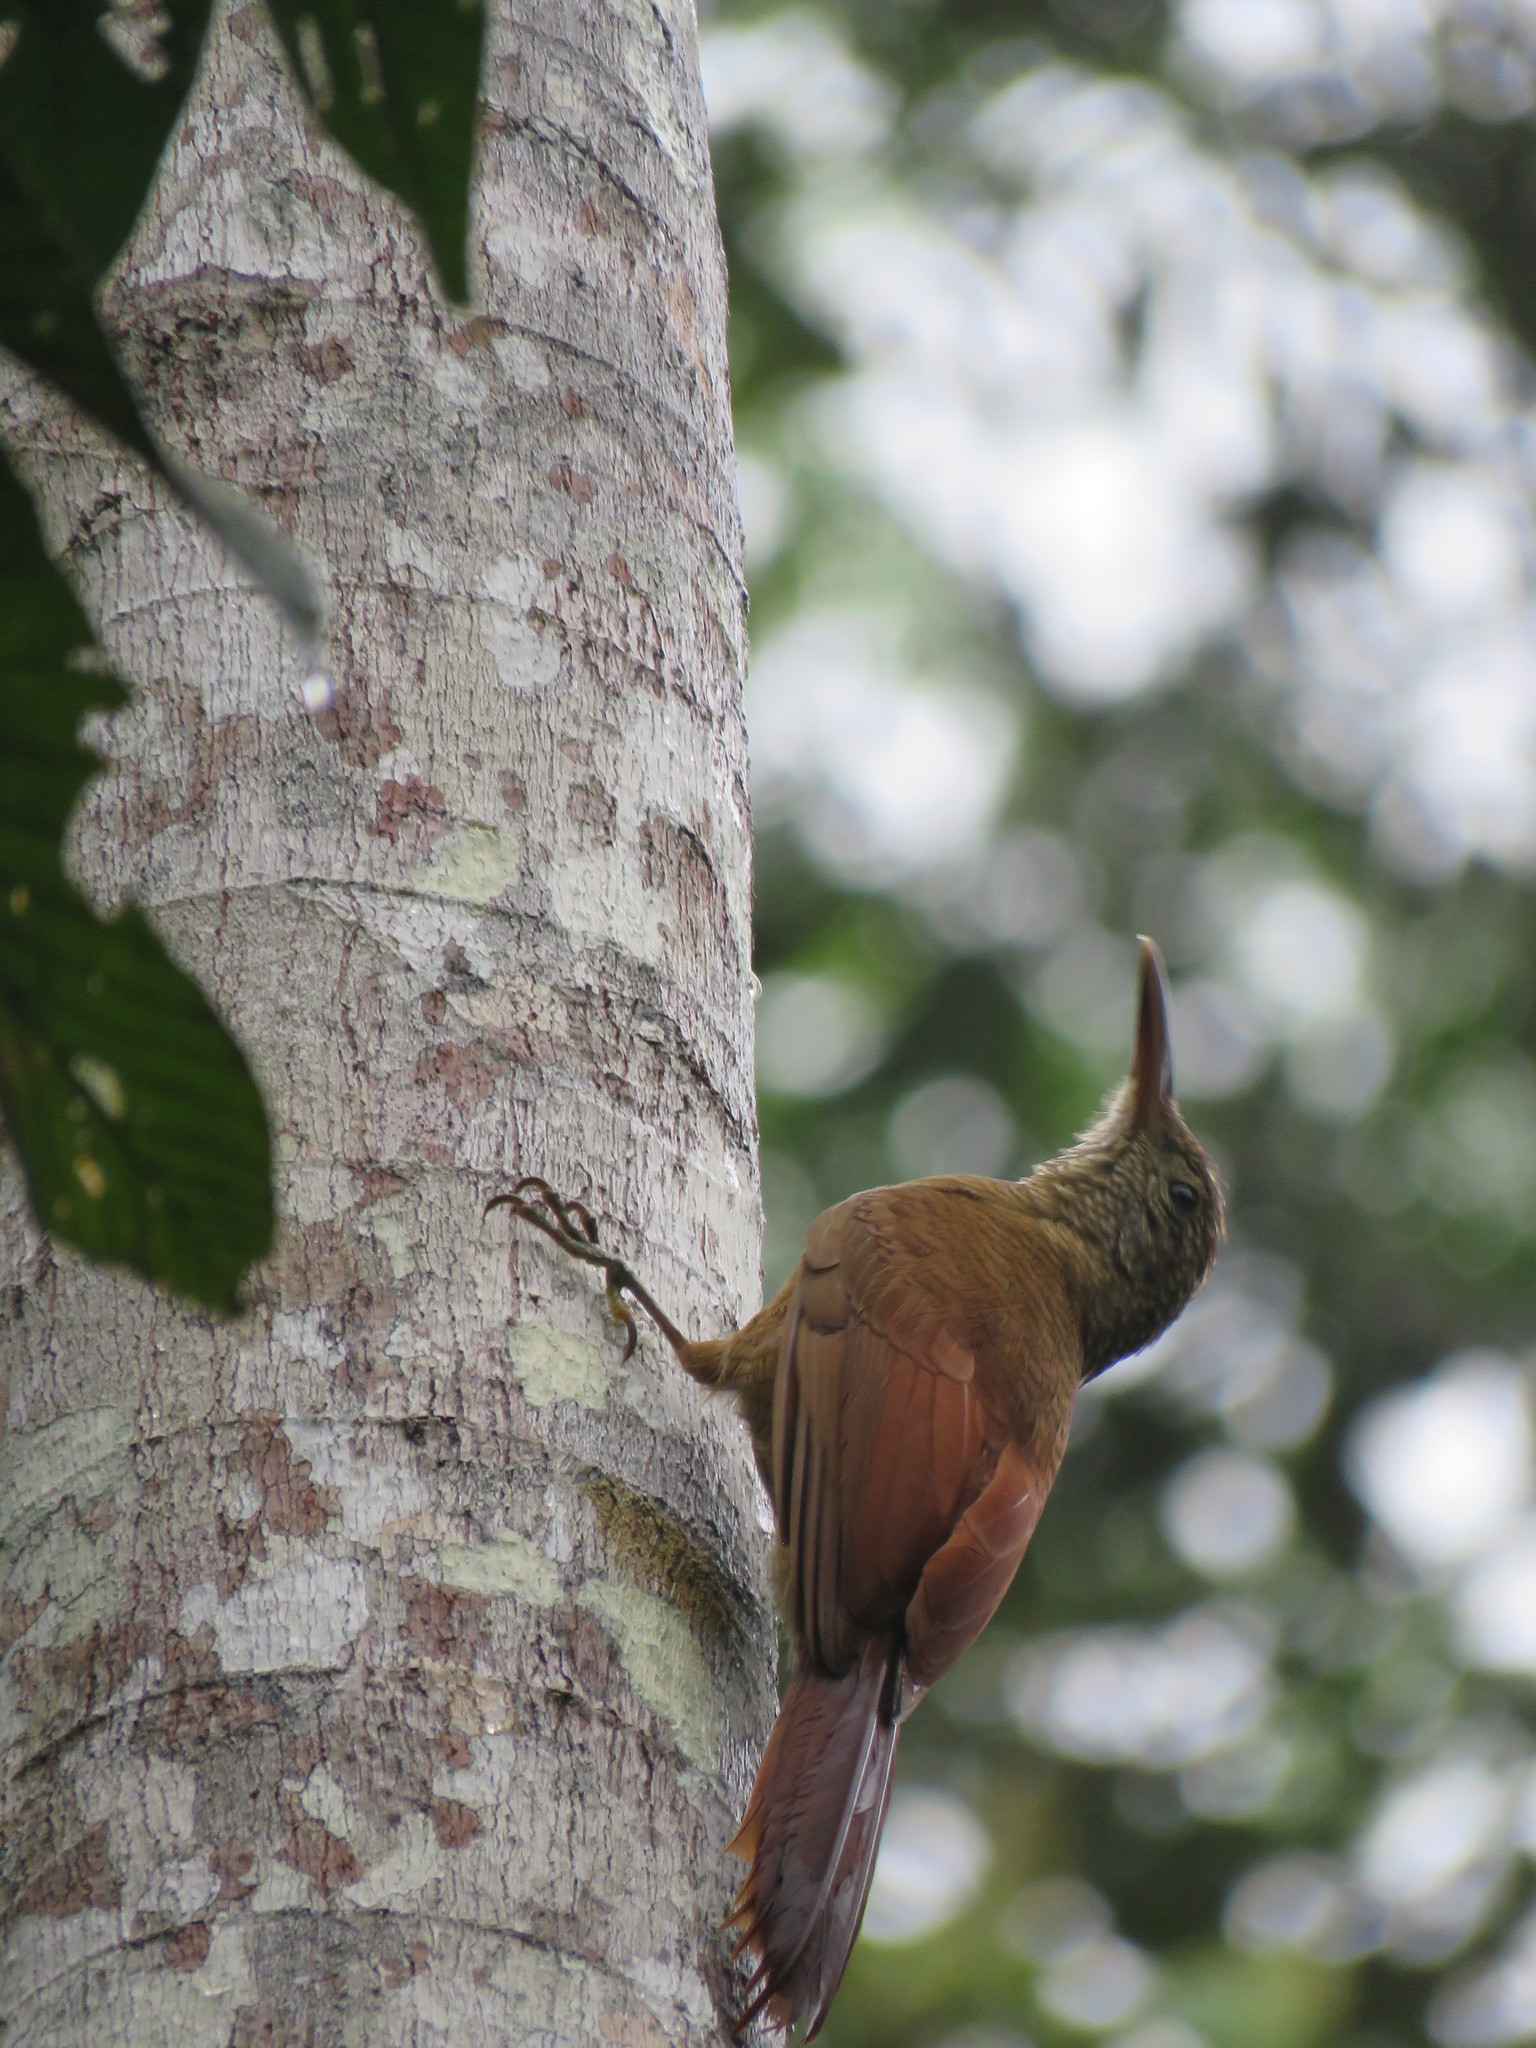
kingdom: Animalia
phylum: Chordata
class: Aves
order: Passeriformes
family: Furnariidae
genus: Dendrocolaptes
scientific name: Dendrocolaptes certhia
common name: Amazonian barred woodcreeper
